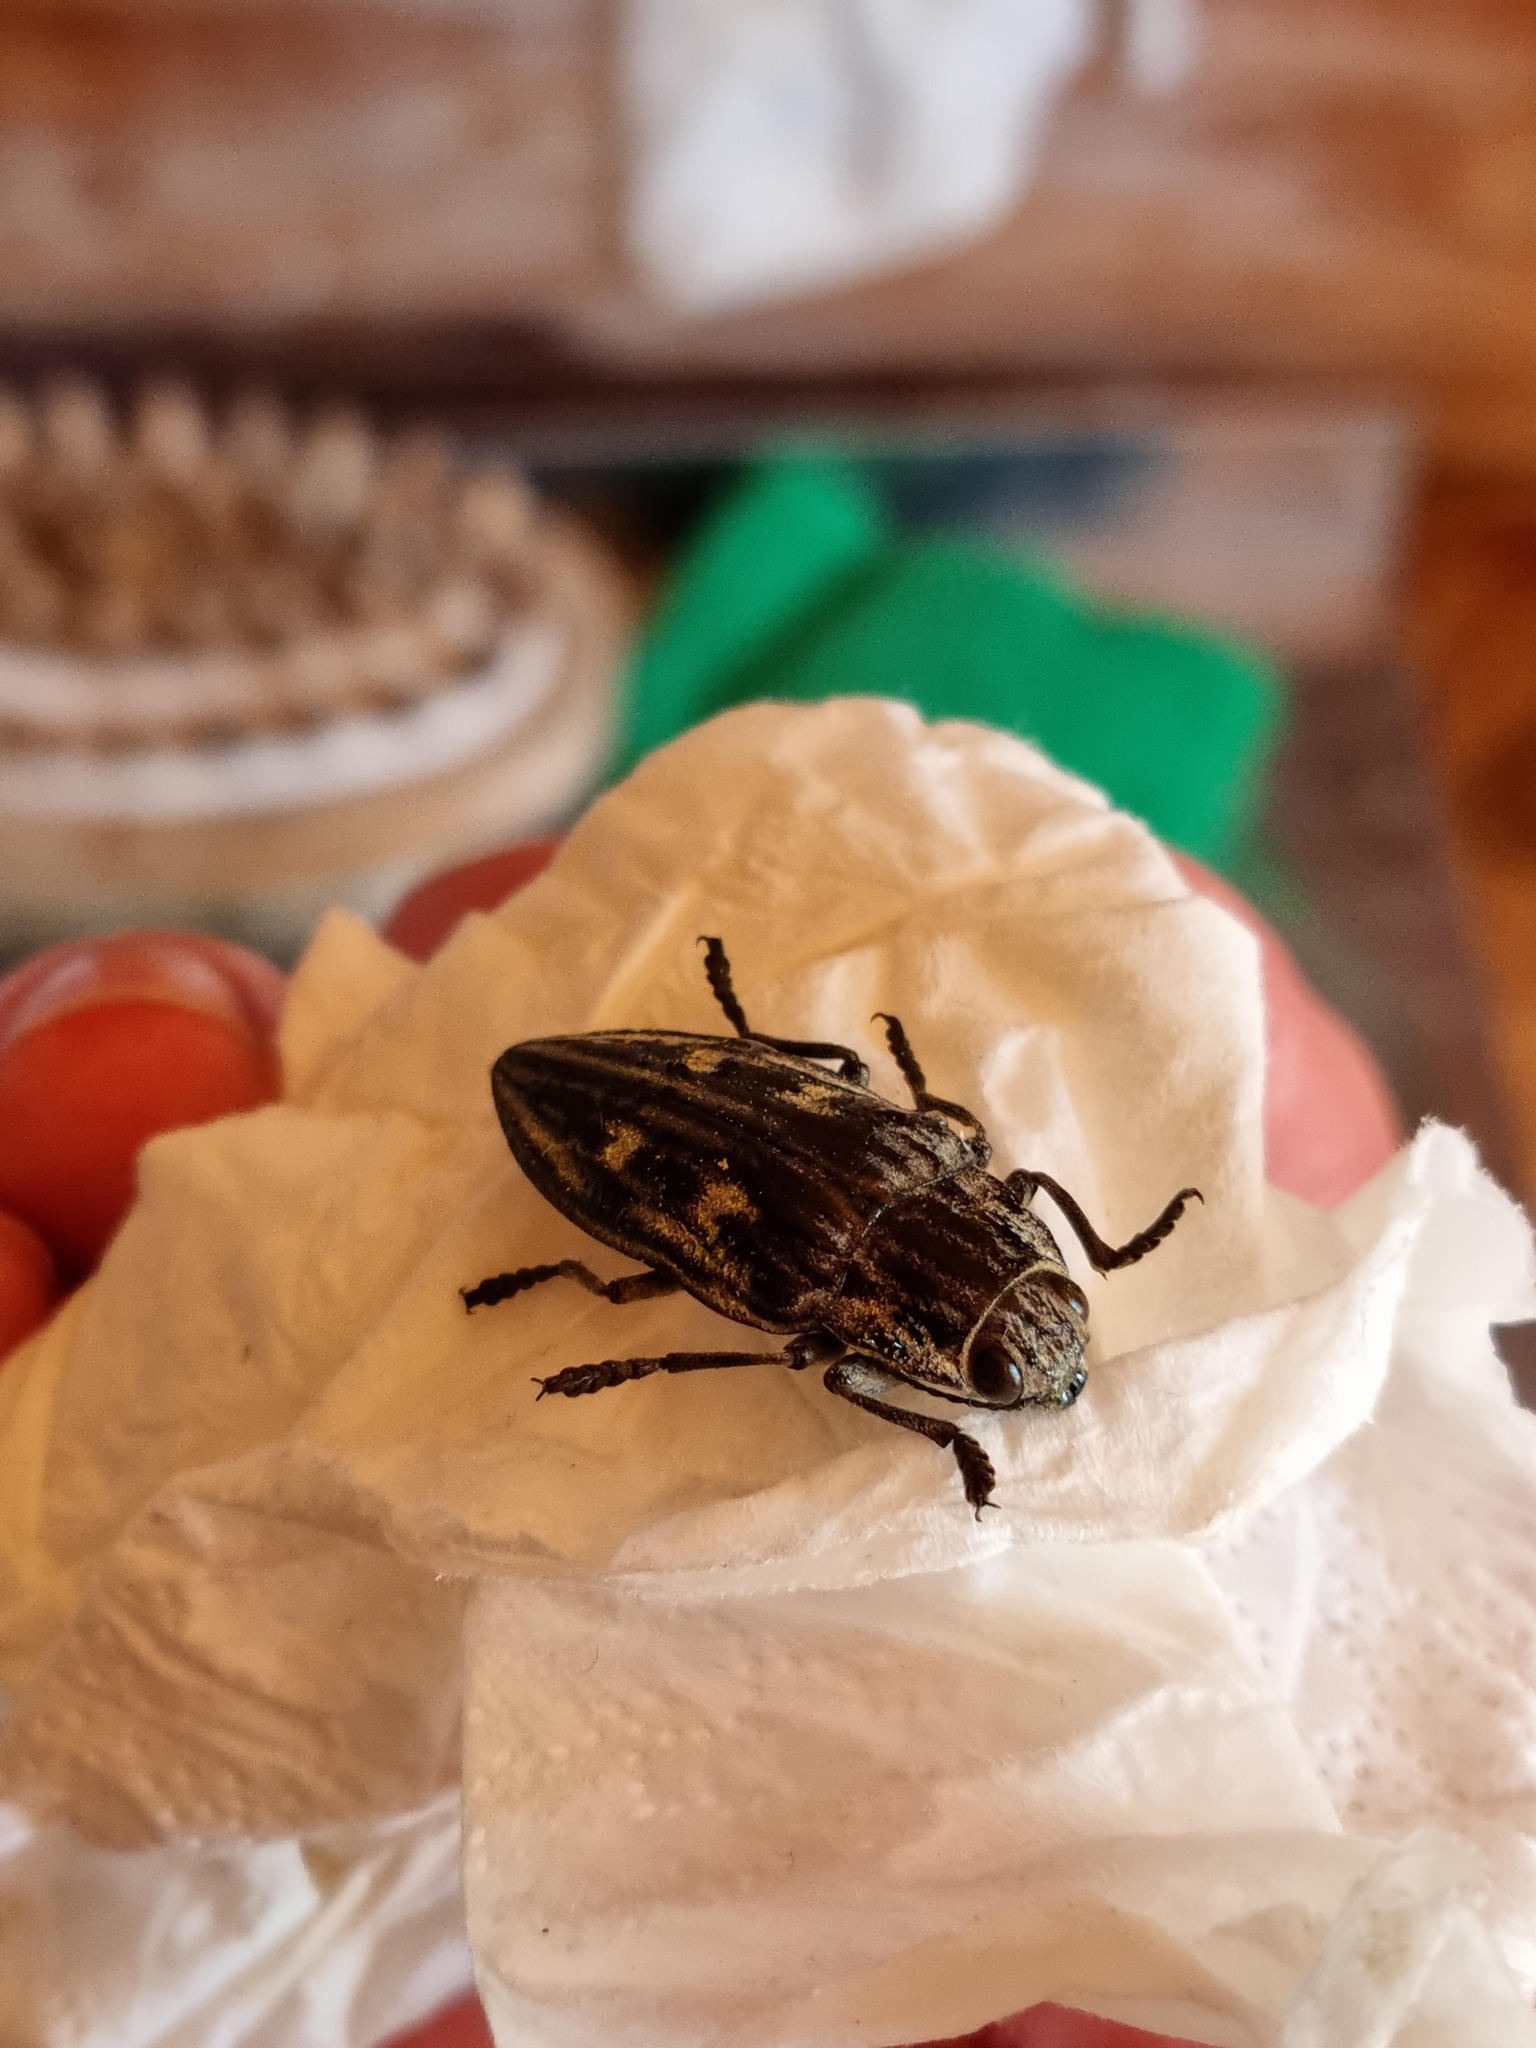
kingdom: Animalia
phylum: Arthropoda
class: Insecta
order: Coleoptera
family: Buprestidae
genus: Chalcophora
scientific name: Chalcophora mariana
